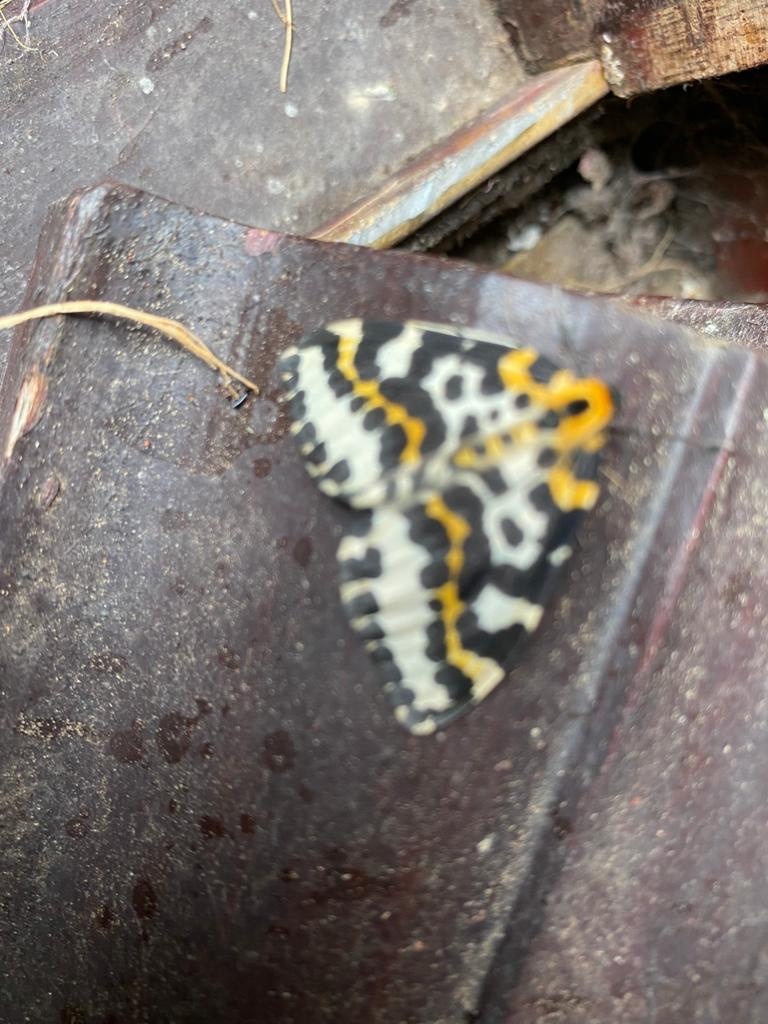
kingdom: Animalia
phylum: Arthropoda
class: Insecta
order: Lepidoptera
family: Geometridae
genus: Abraxas
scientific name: Abraxas grossulariata
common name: Magpie
